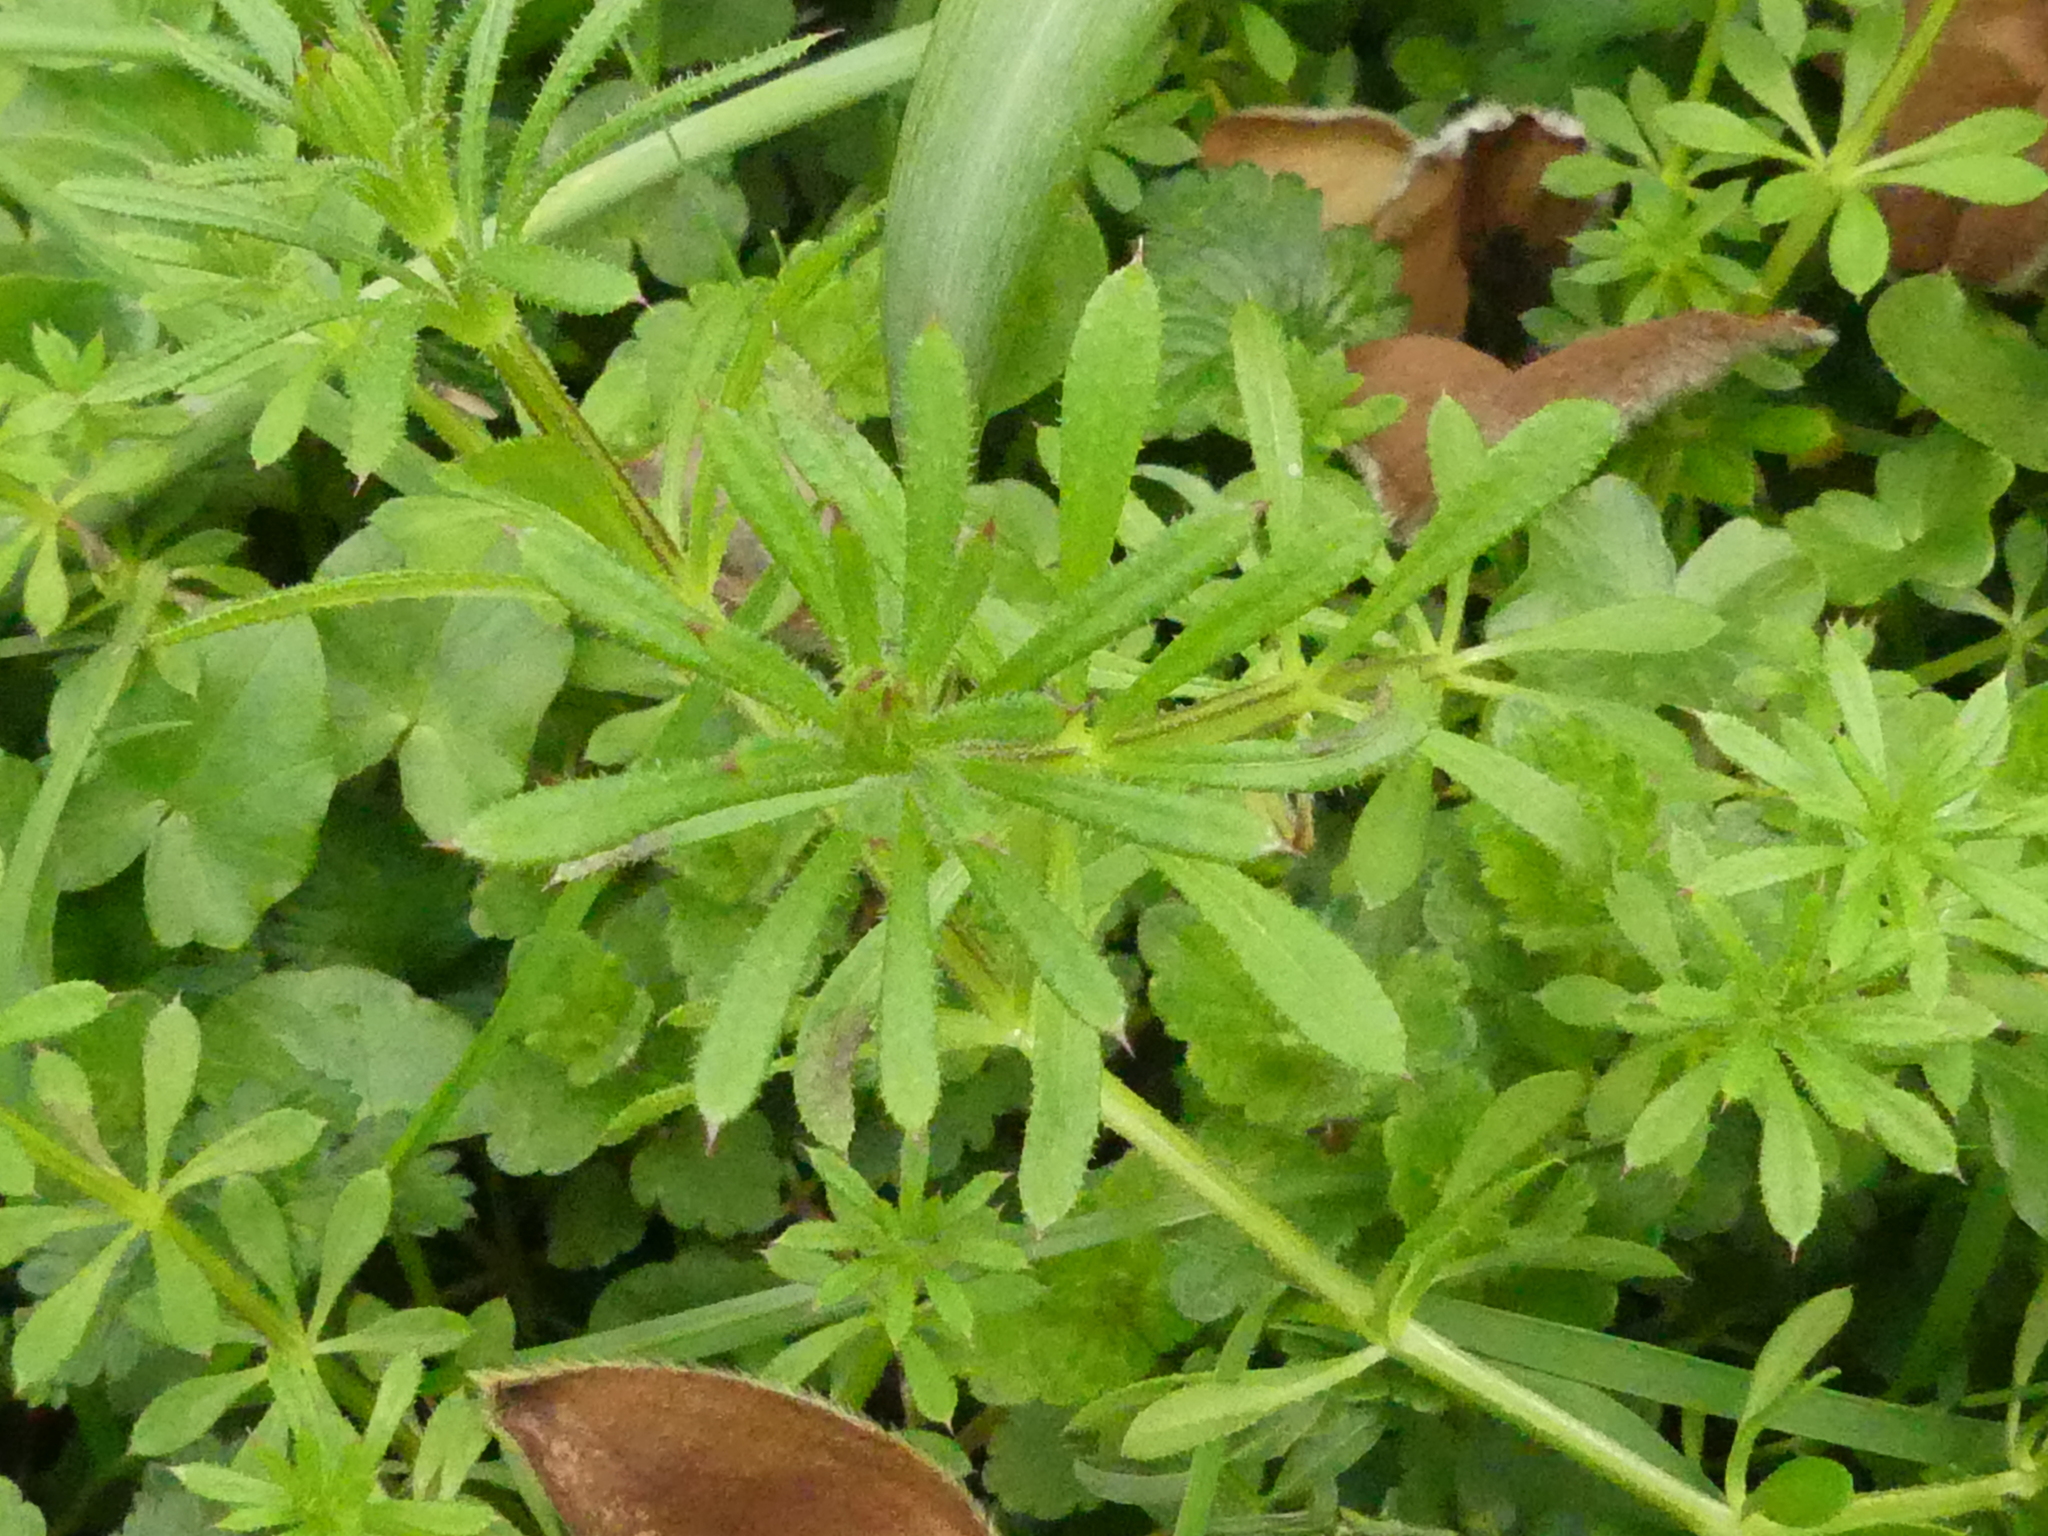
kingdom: Plantae
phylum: Tracheophyta
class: Magnoliopsida
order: Gentianales
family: Rubiaceae
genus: Galium
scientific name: Galium aparine
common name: Cleavers
